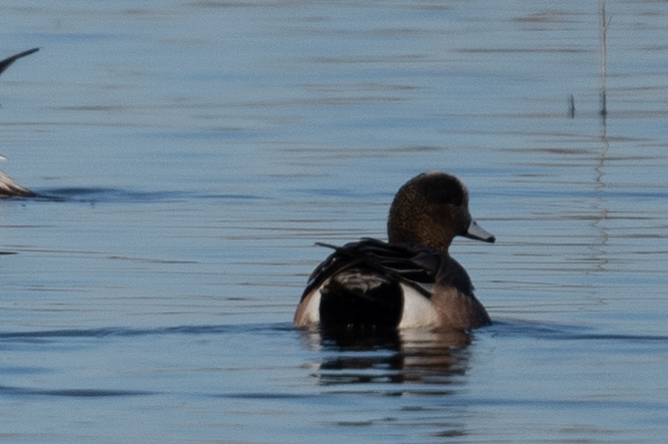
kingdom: Animalia
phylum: Chordata
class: Aves
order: Anseriformes
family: Anatidae
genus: Mareca
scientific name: Mareca americana
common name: American wigeon
